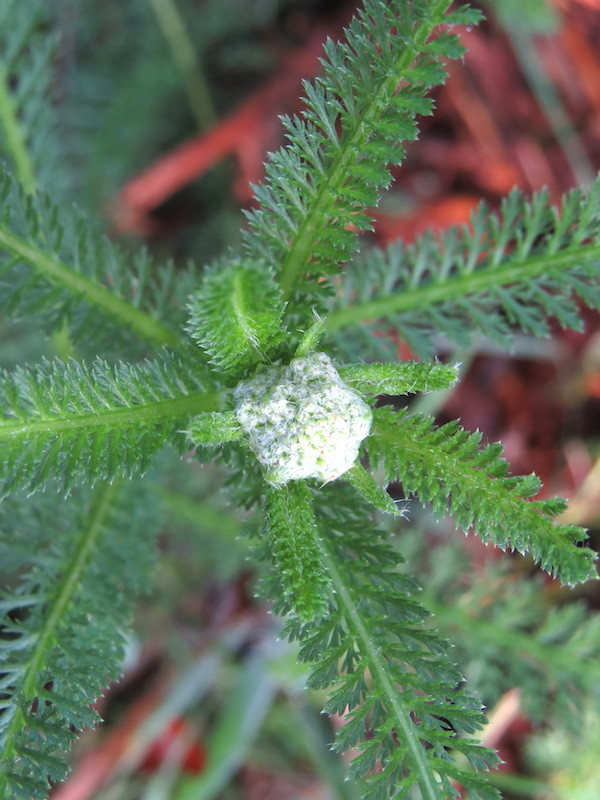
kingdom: Plantae
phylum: Tracheophyta
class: Magnoliopsida
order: Asterales
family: Asteraceae
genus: Achillea
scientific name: Achillea millefolium
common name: Yarrow
